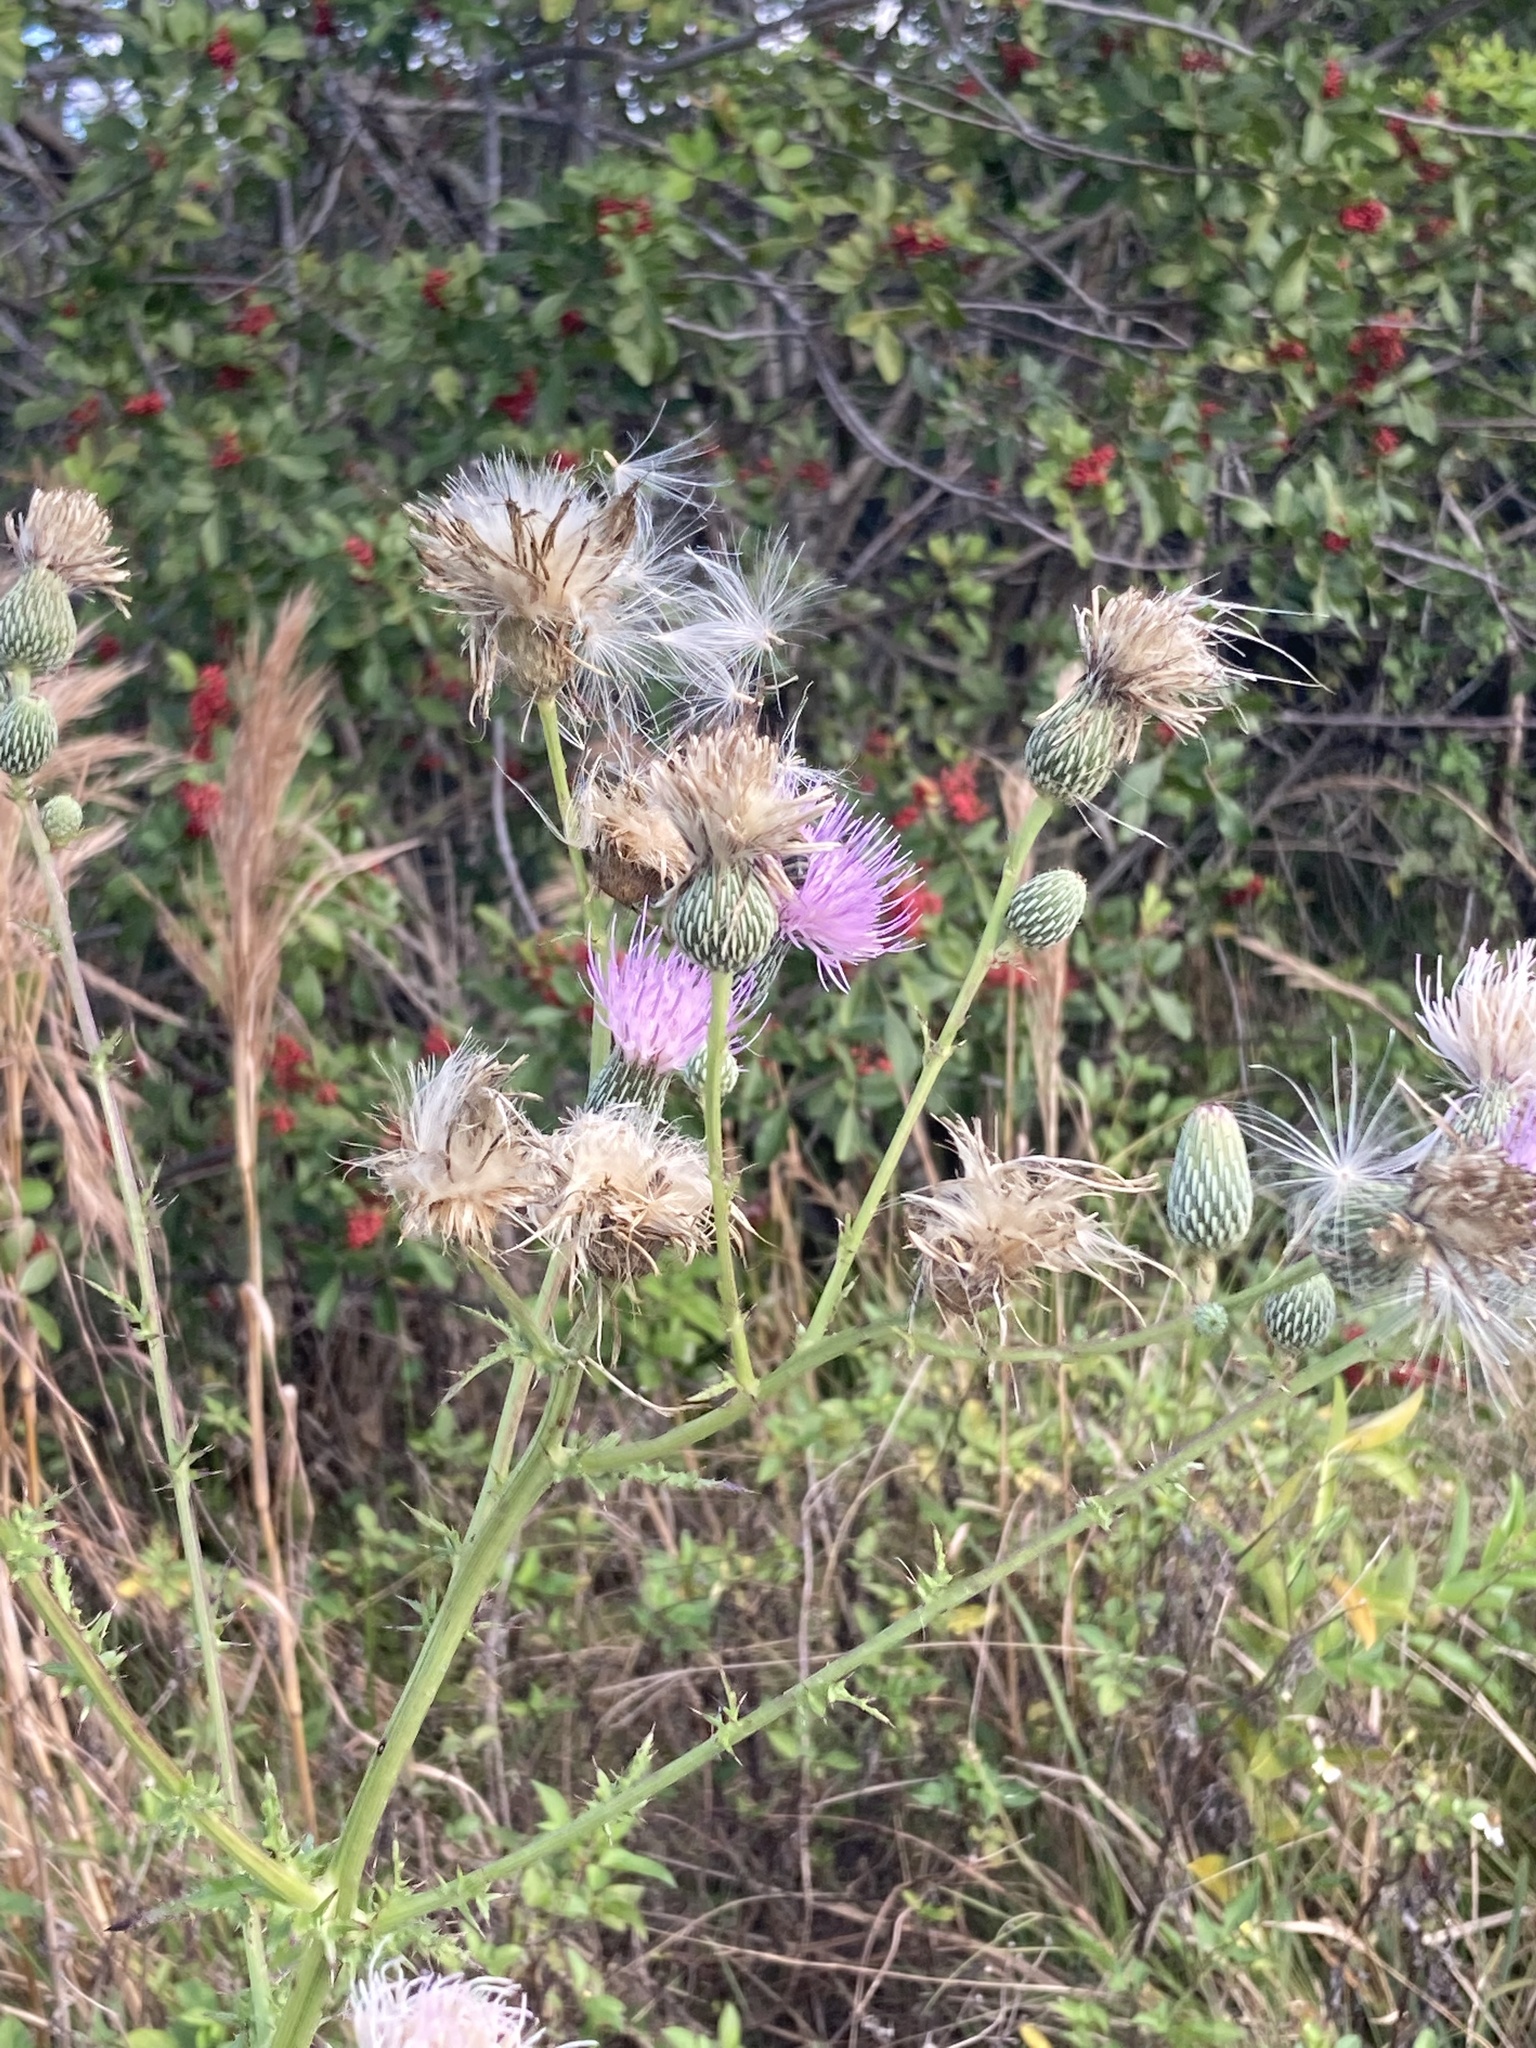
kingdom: Plantae
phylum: Tracheophyta
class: Magnoliopsida
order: Asterales
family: Asteraceae
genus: Cirsium
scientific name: Cirsium nuttalii
